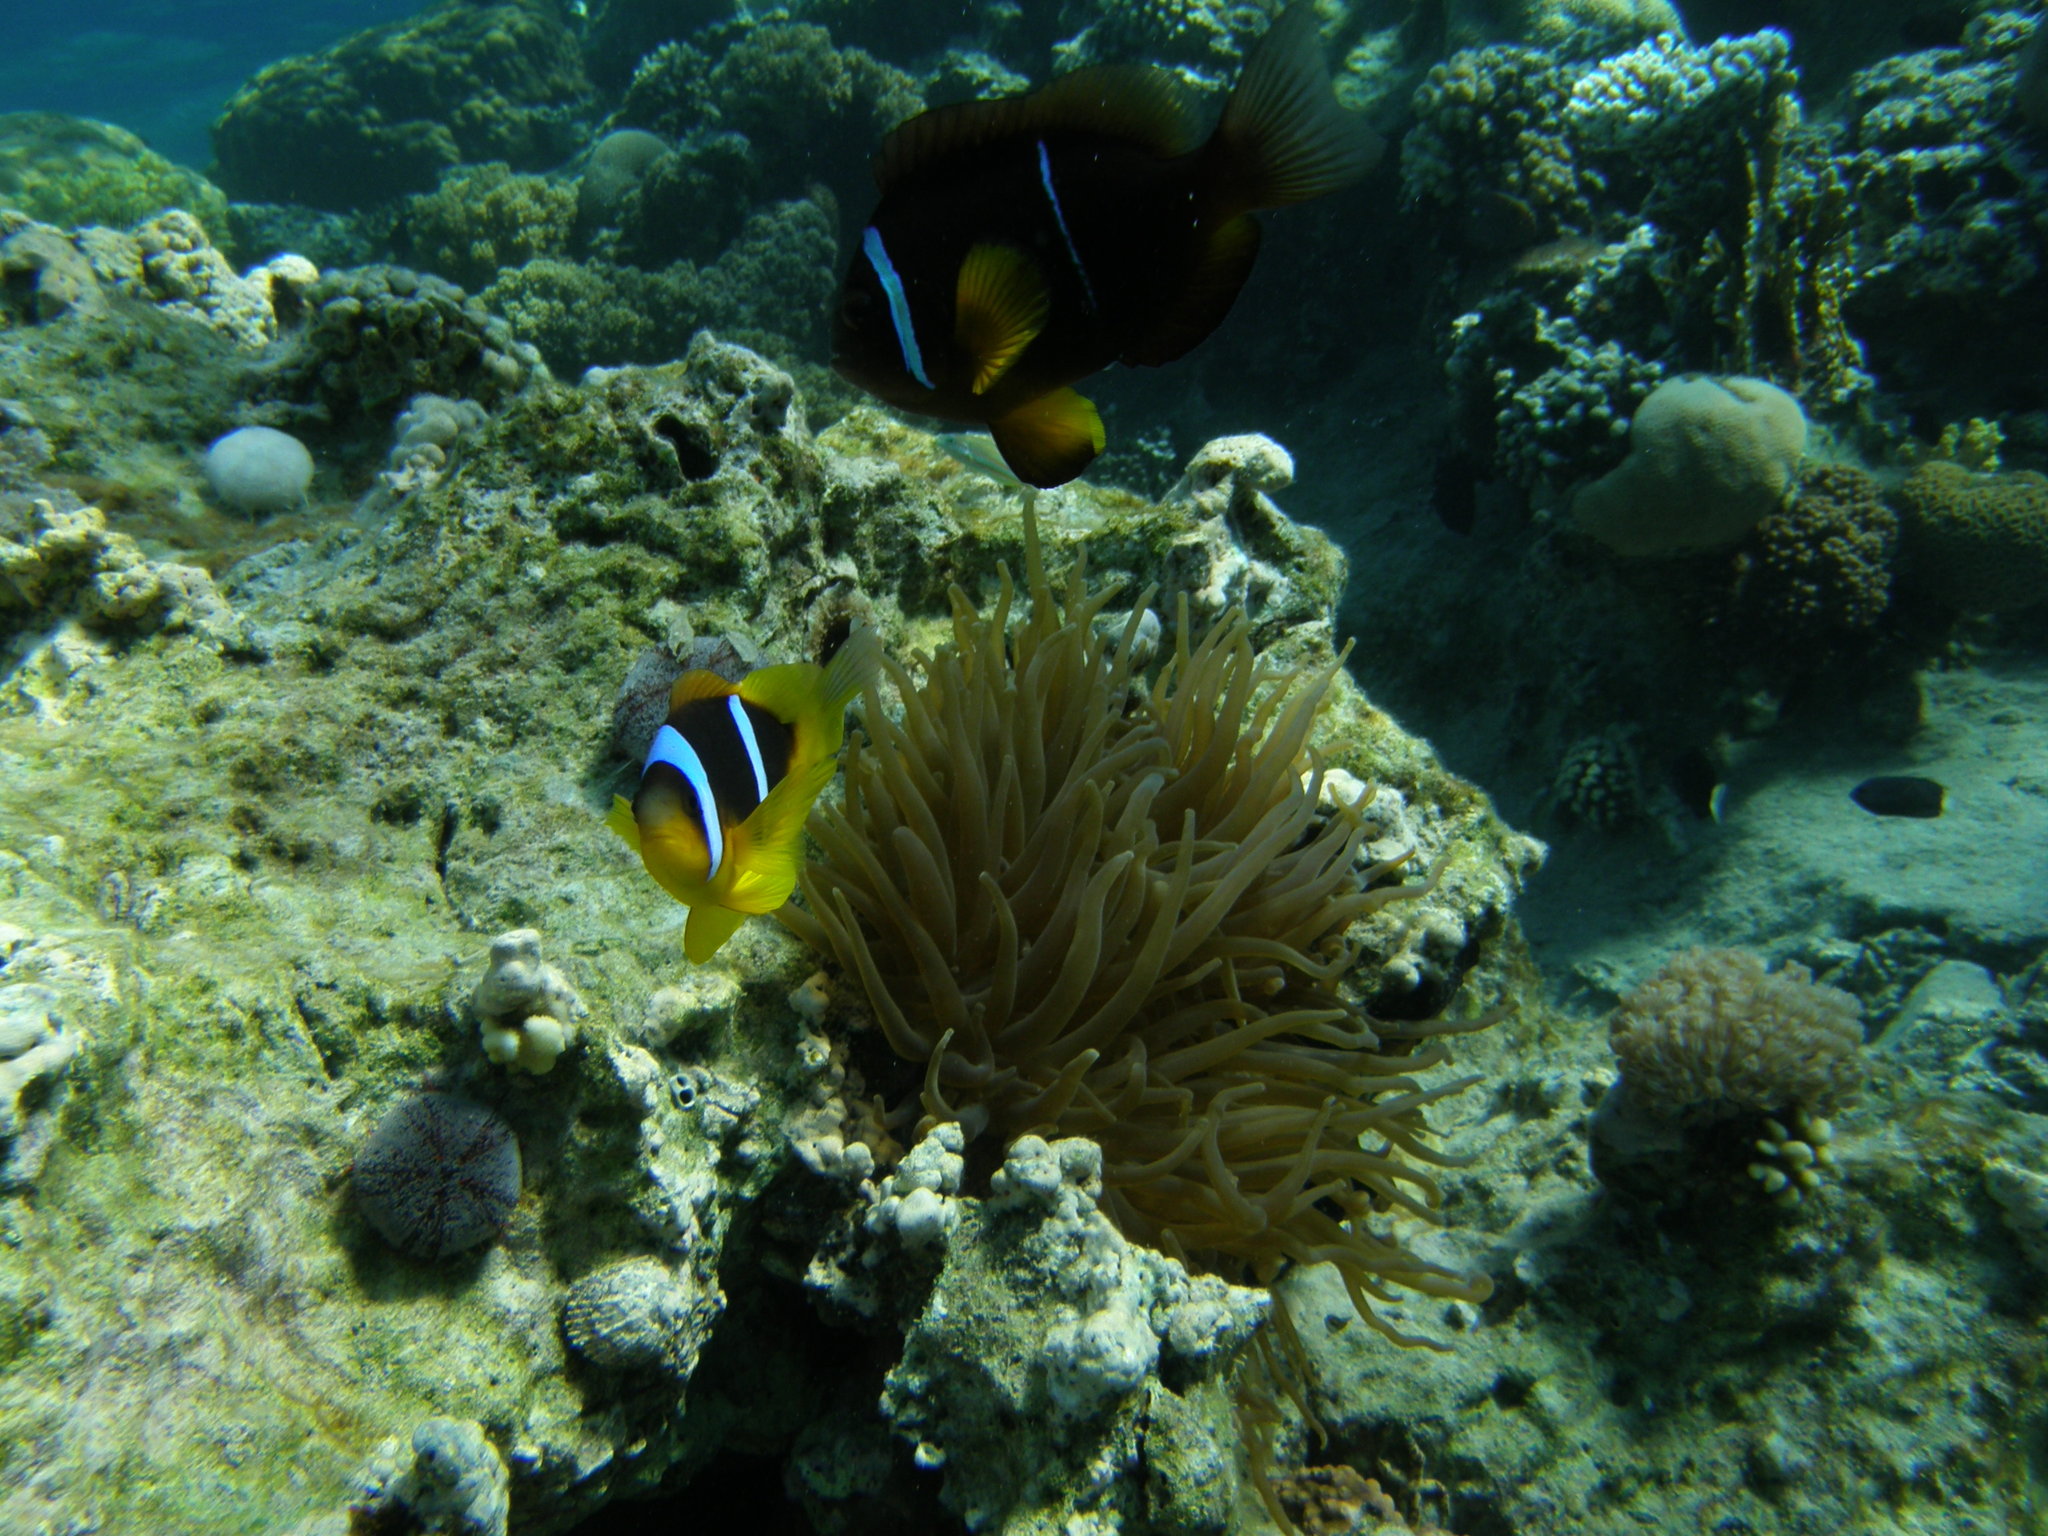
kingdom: Animalia
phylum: Chordata
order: Perciformes
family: Pomacentridae
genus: Amphiprion
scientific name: Amphiprion bicinctus
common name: Two-banded anemonefish
